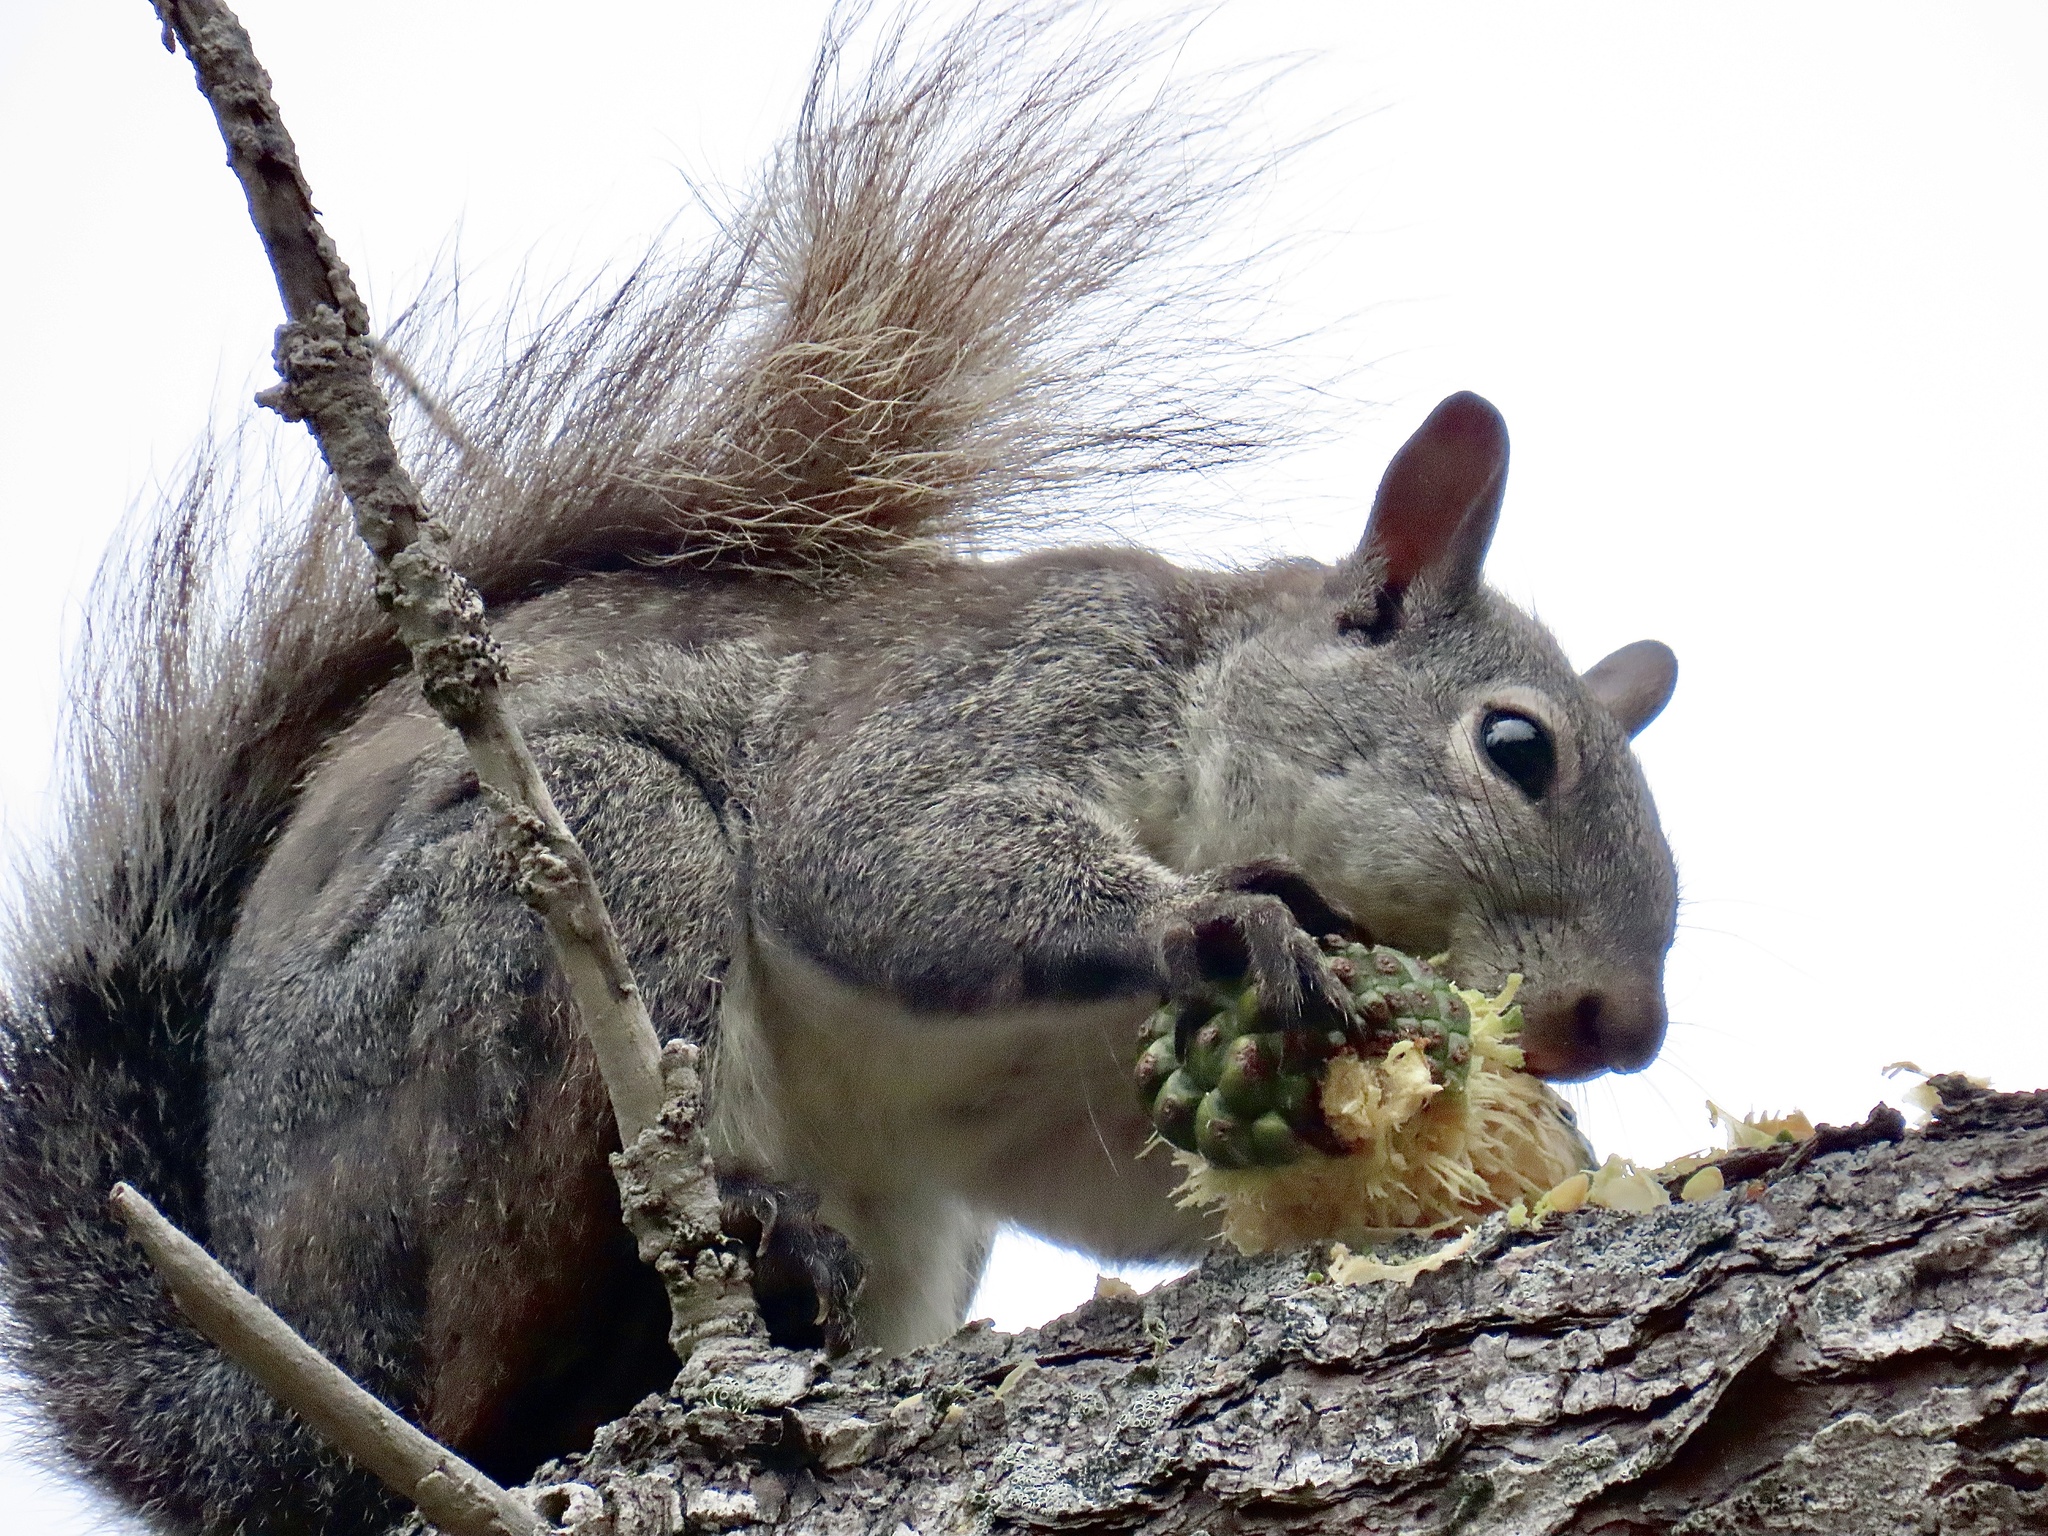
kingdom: Animalia
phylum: Chordata
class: Mammalia
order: Rodentia
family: Sciuridae
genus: Sciurus
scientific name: Sciurus griseus
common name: Western gray squirrel
